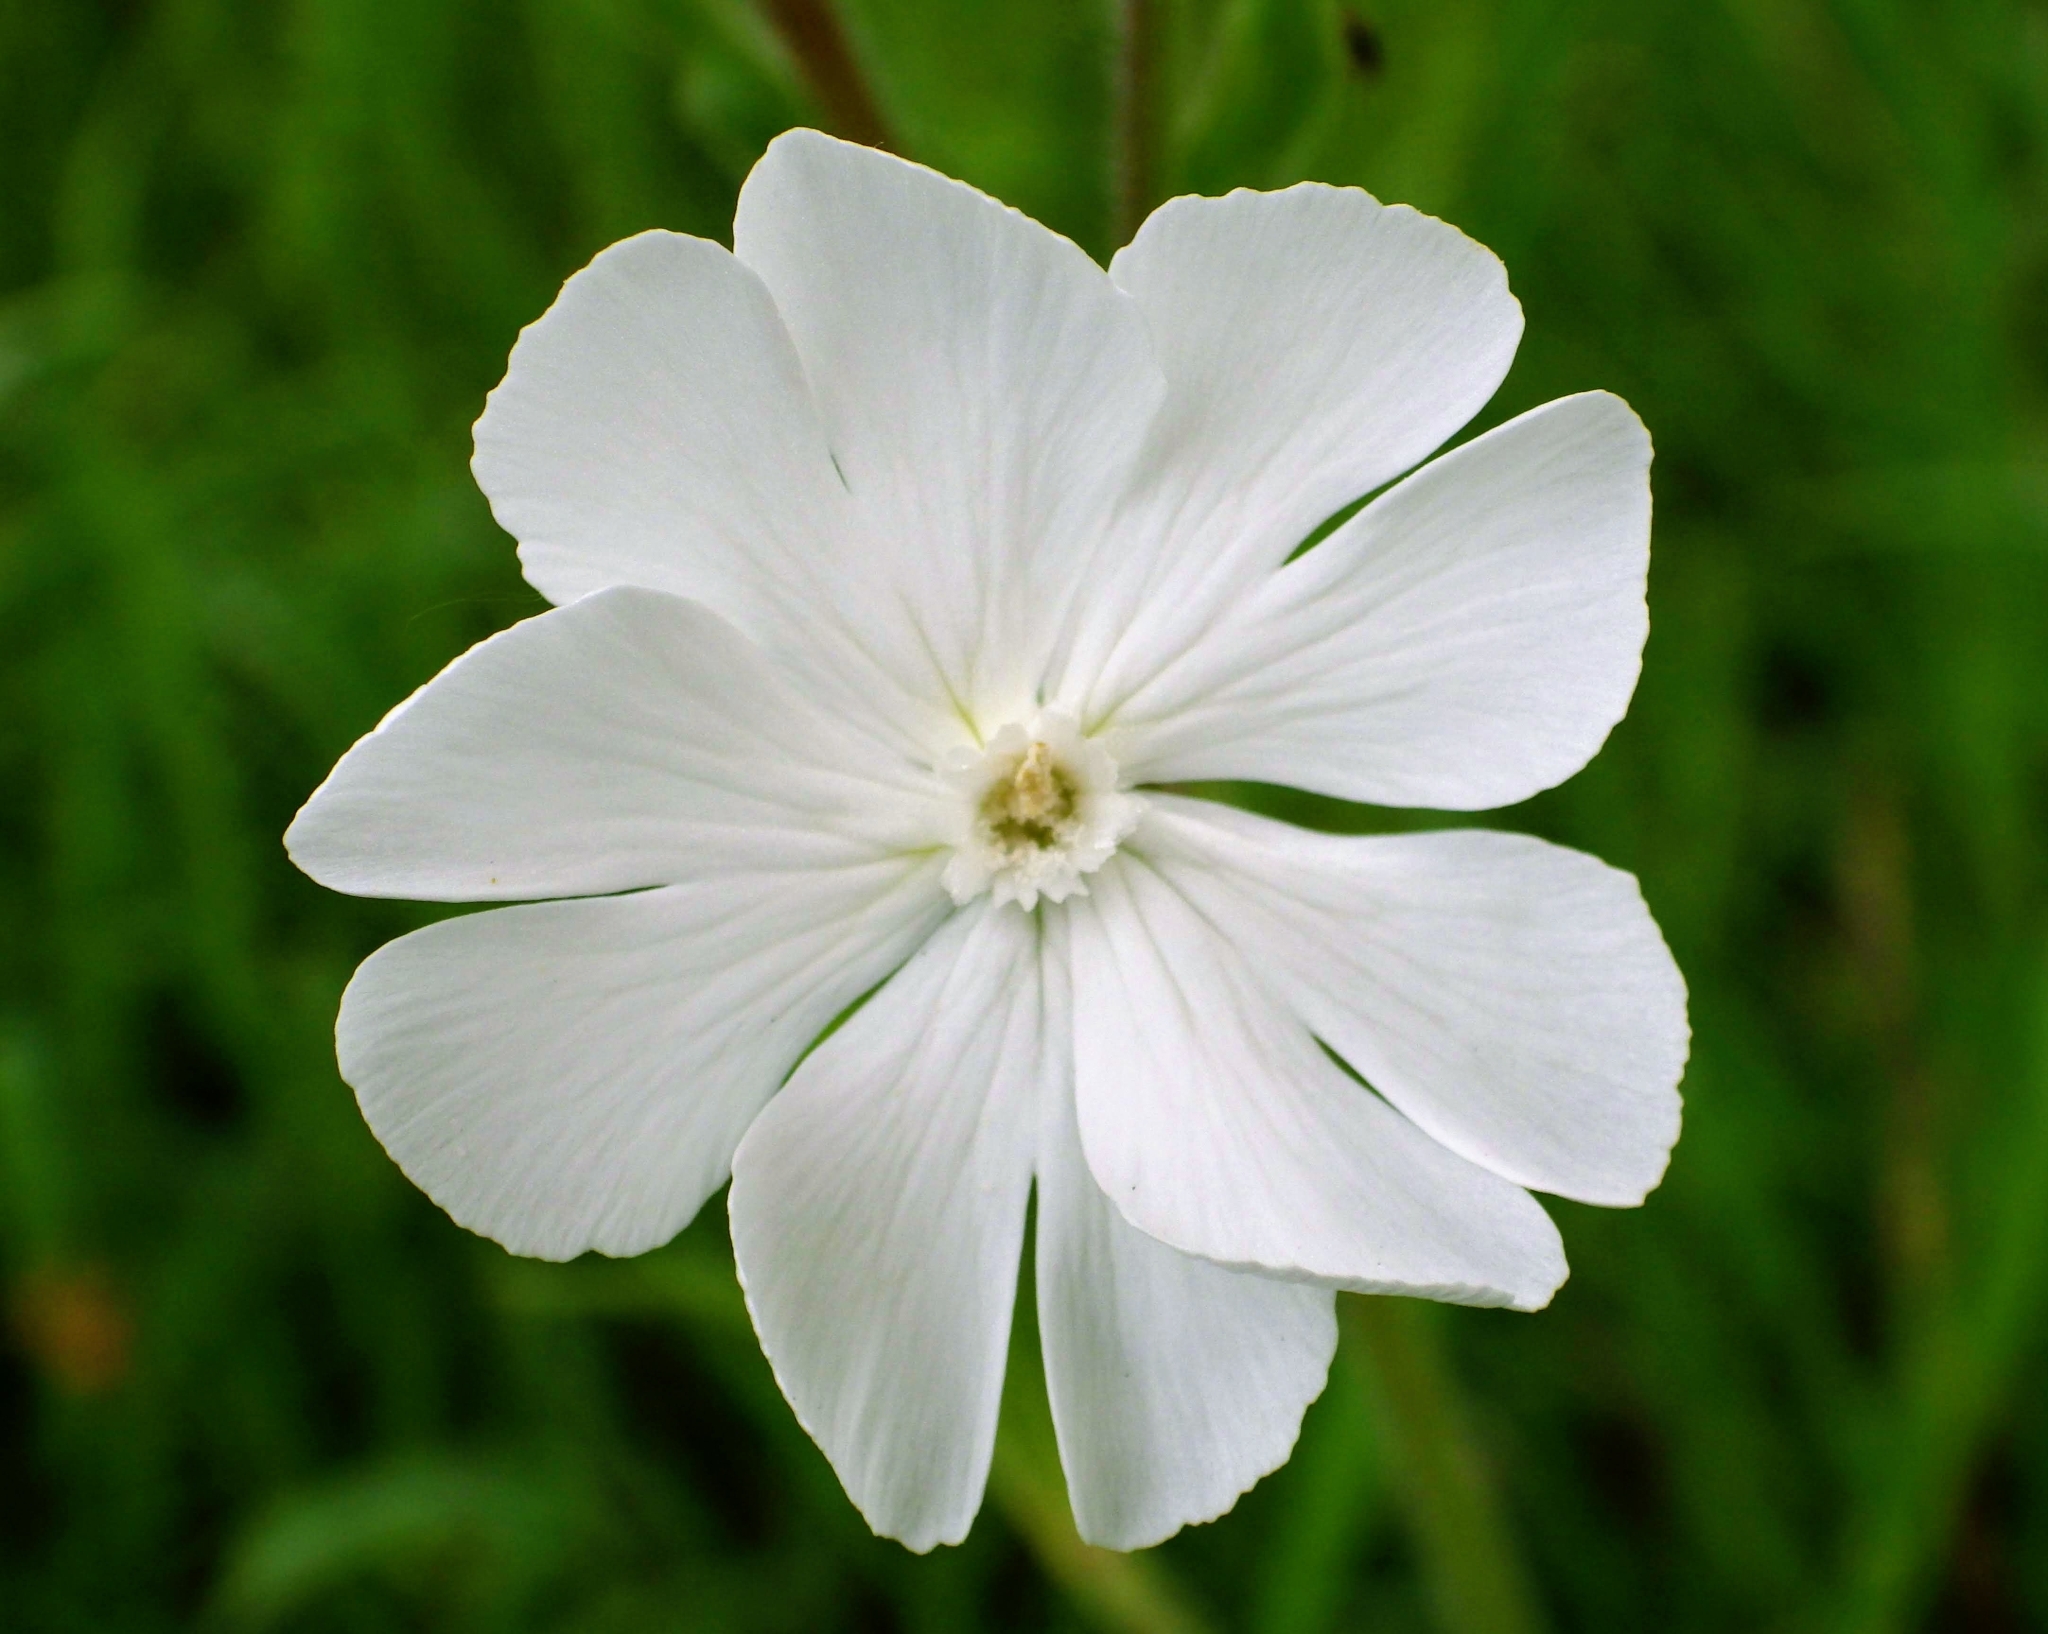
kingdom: Plantae
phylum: Tracheophyta
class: Magnoliopsida
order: Caryophyllales
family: Caryophyllaceae
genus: Silene
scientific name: Silene latifolia
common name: White campion
